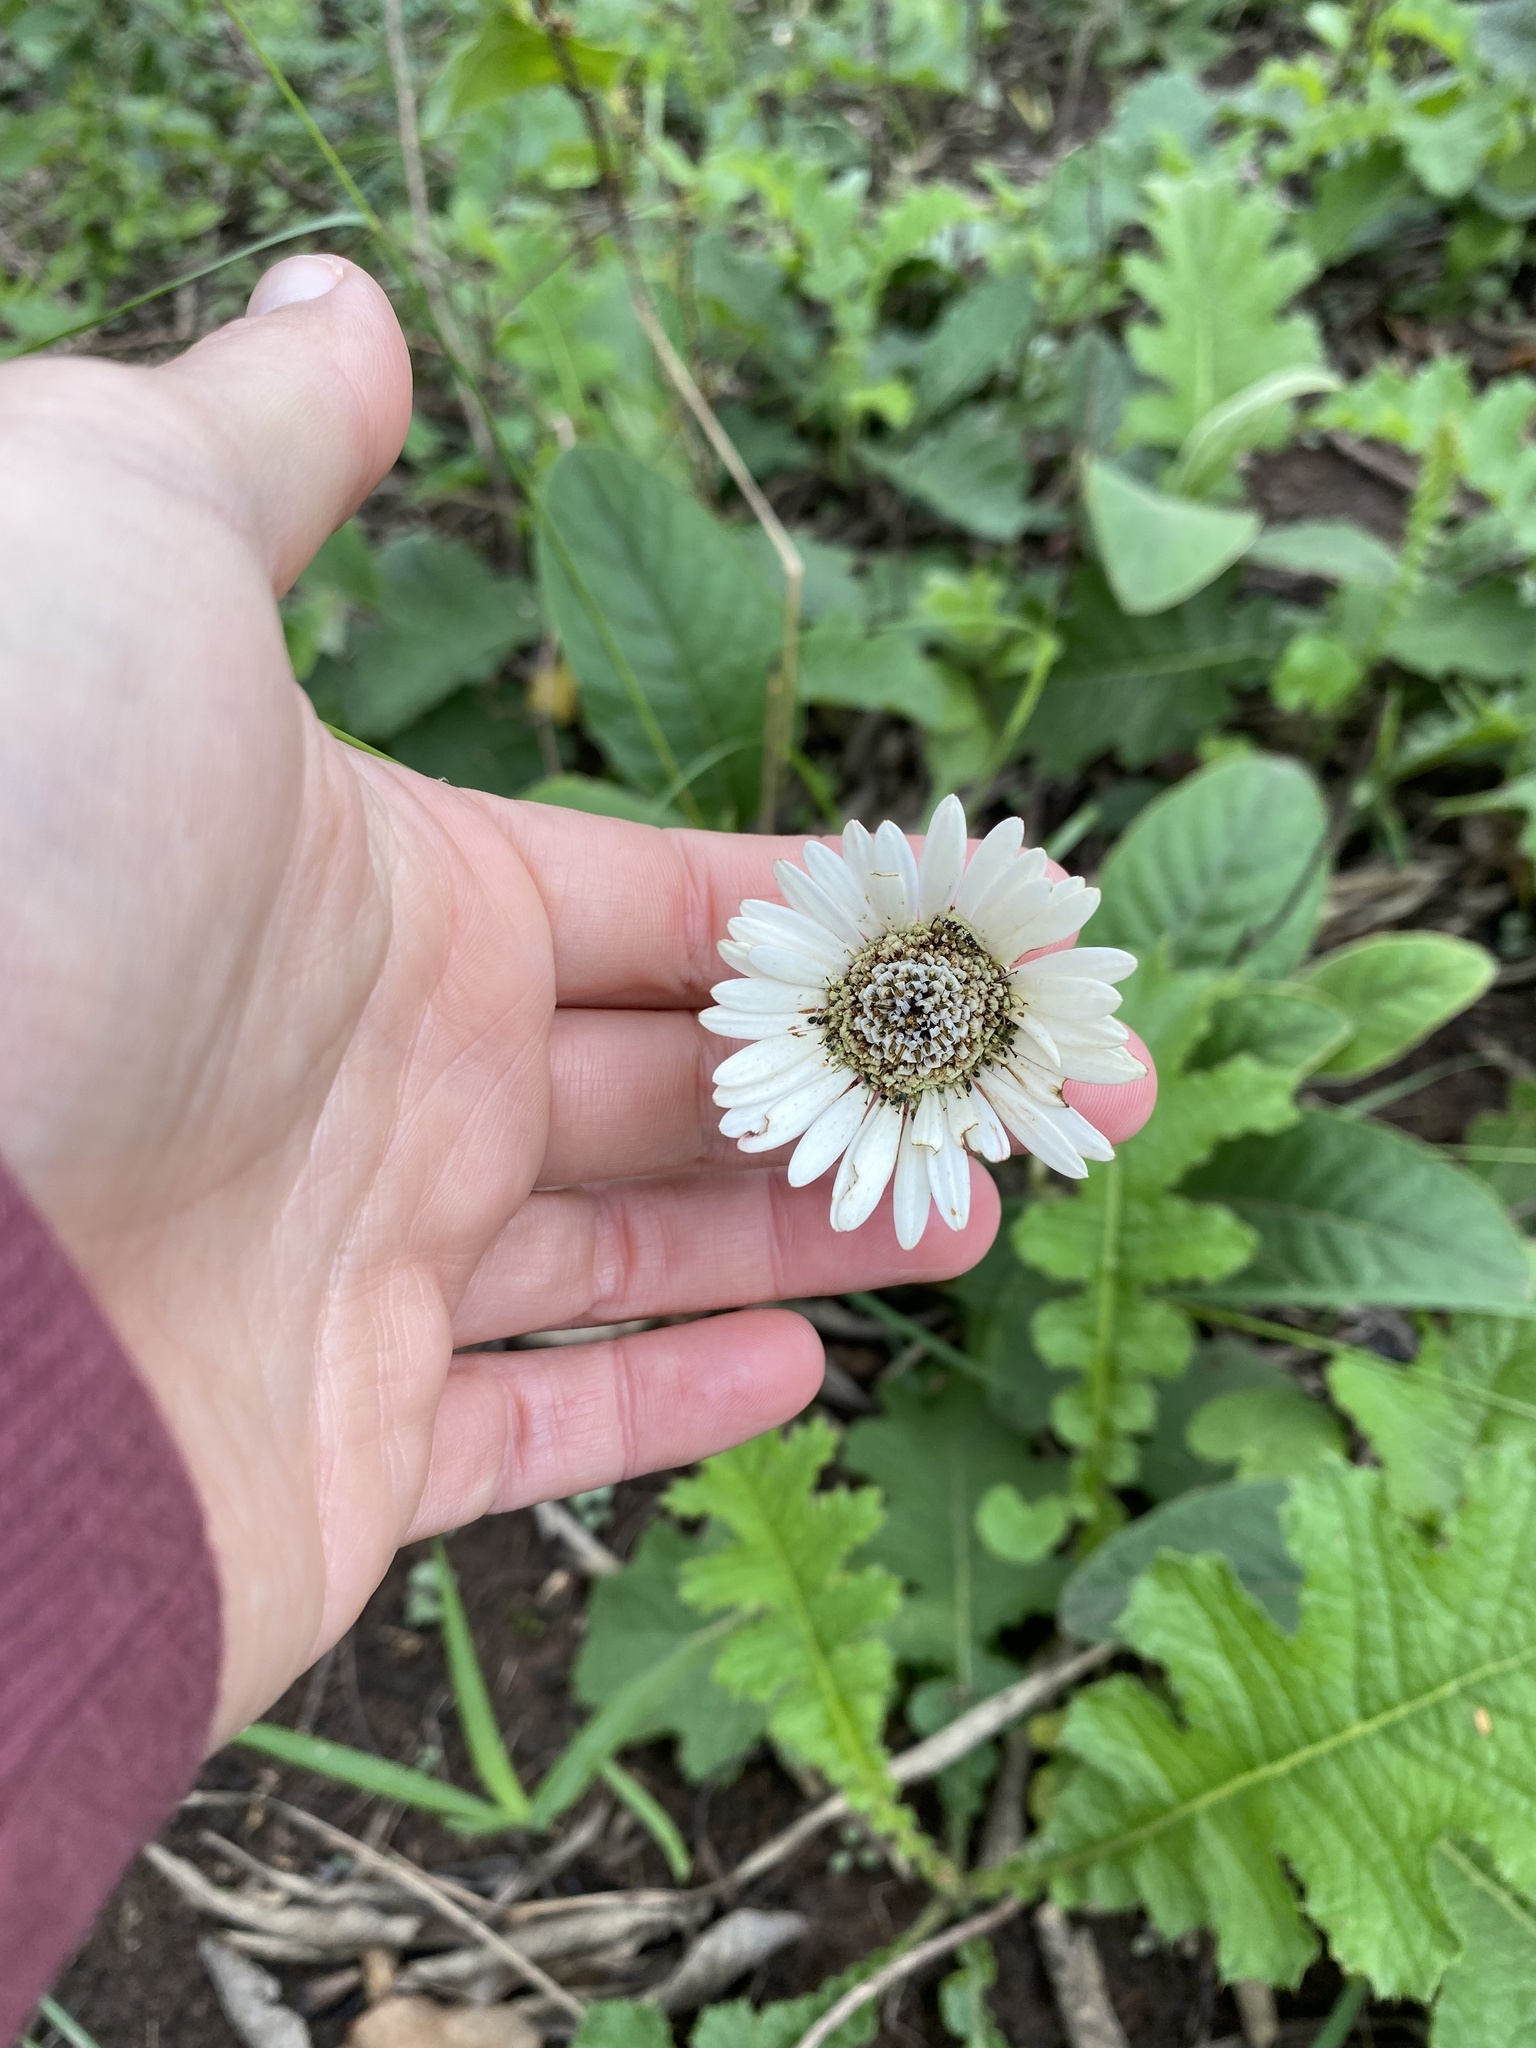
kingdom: Plantae
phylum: Tracheophyta
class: Magnoliopsida
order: Asterales
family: Asteraceae
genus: Gerbera
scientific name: Gerbera ambigua
